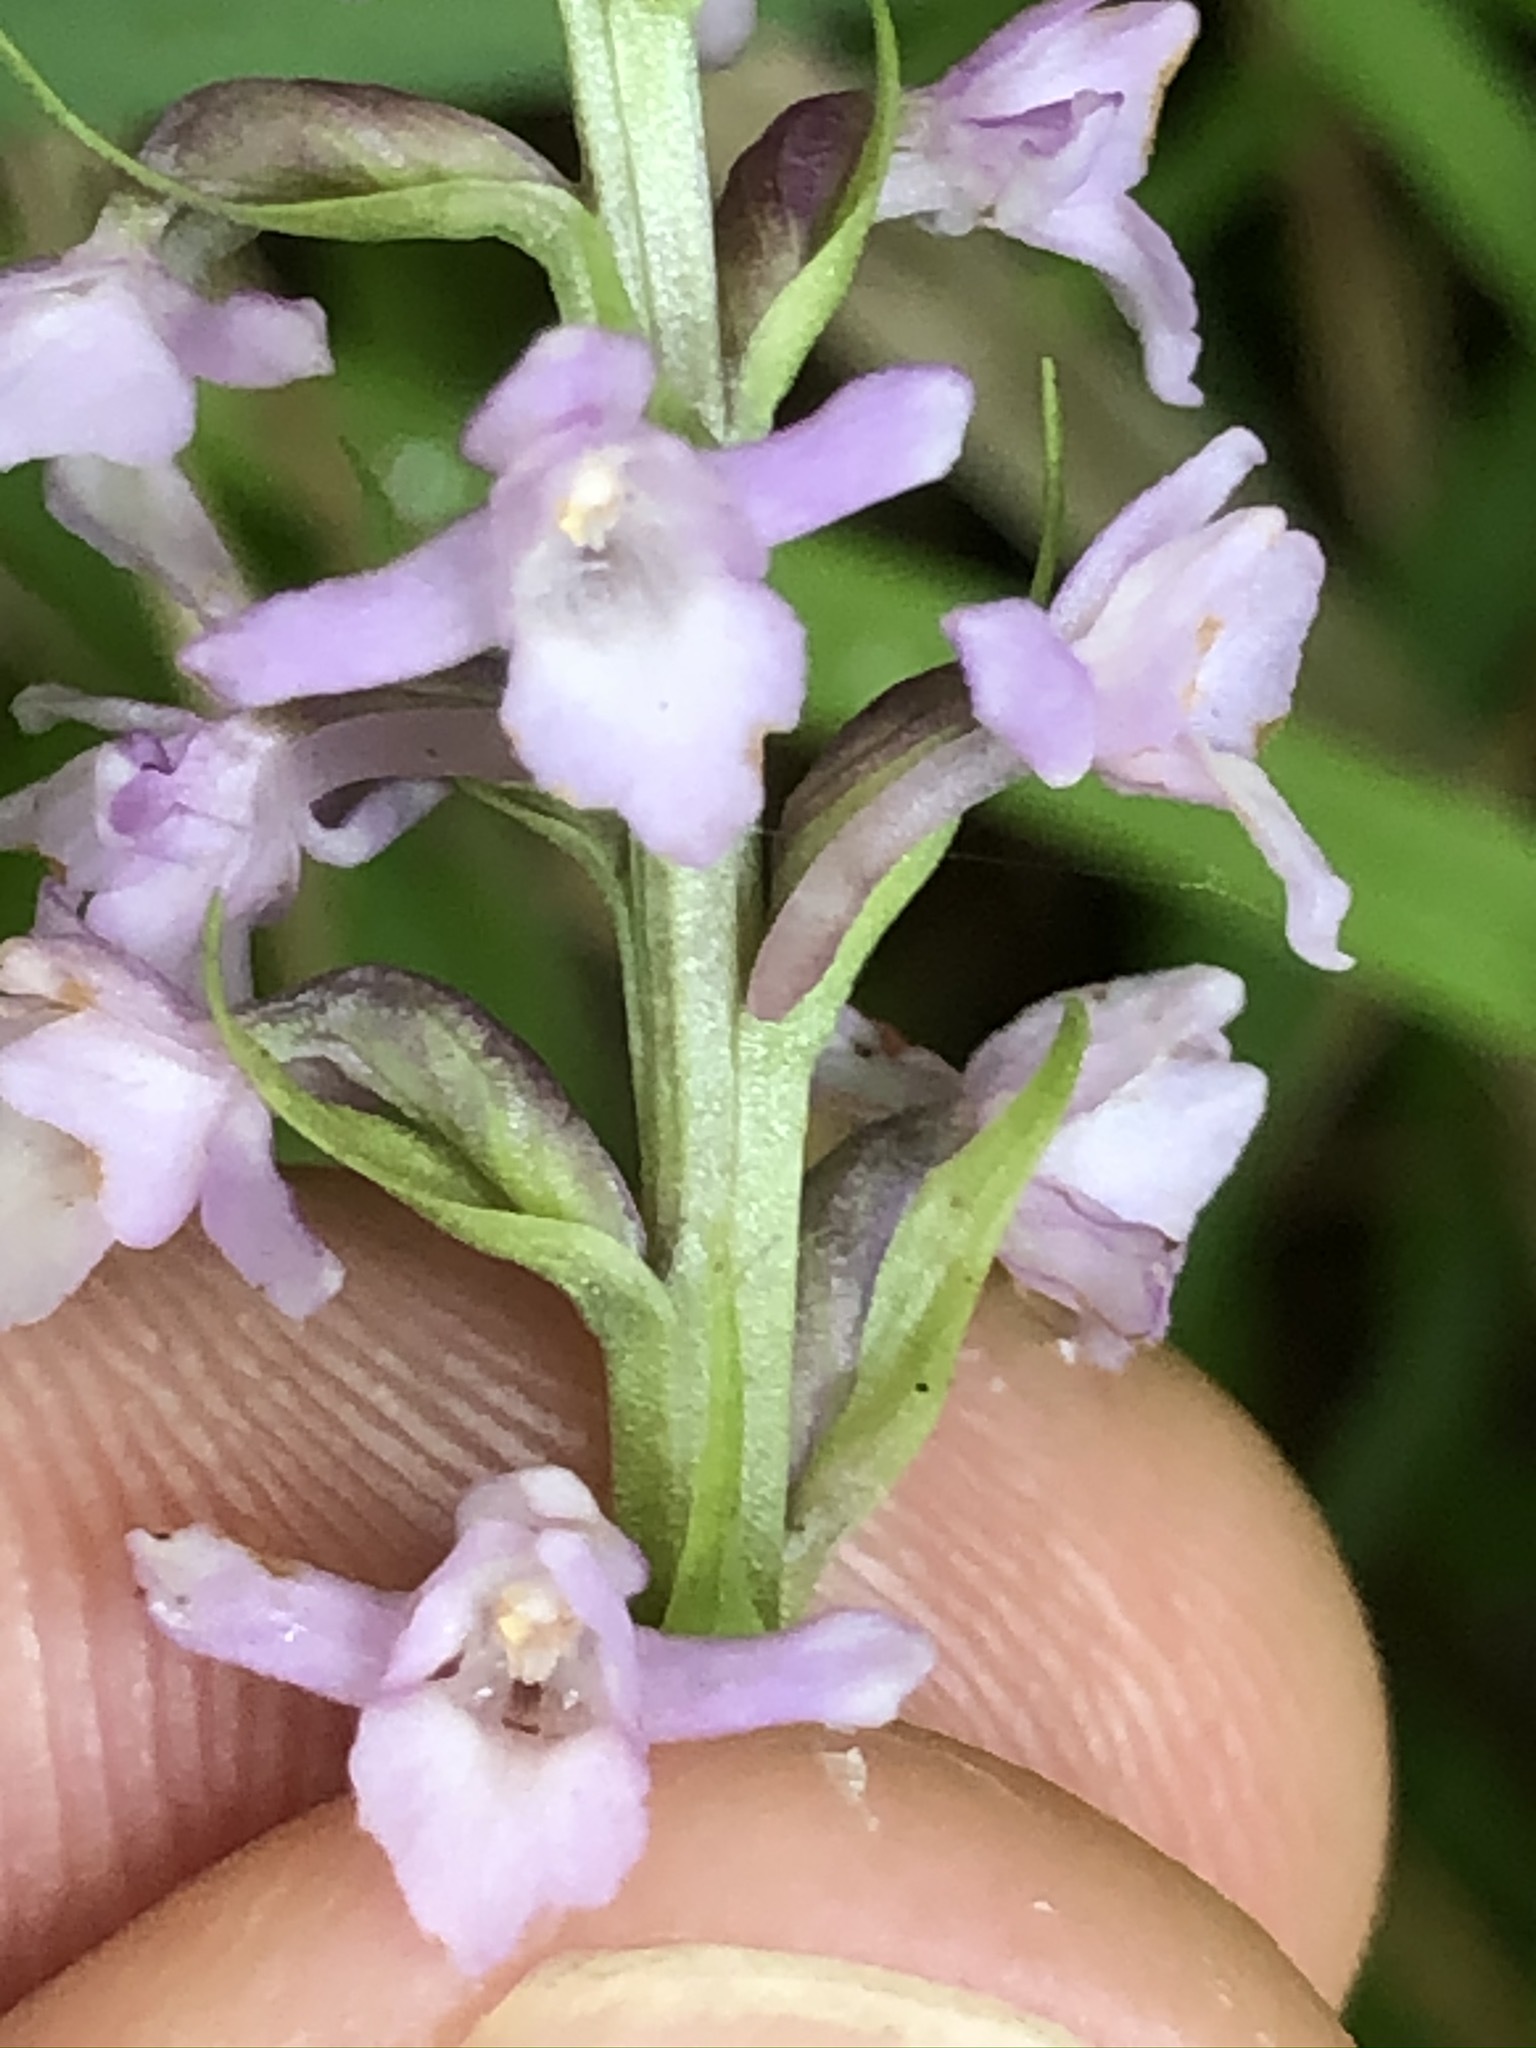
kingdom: Plantae
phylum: Tracheophyta
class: Liliopsida
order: Asparagales
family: Orchidaceae
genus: Gymnadenia
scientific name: Gymnadenia odoratissima
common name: Scented gymnadenia
